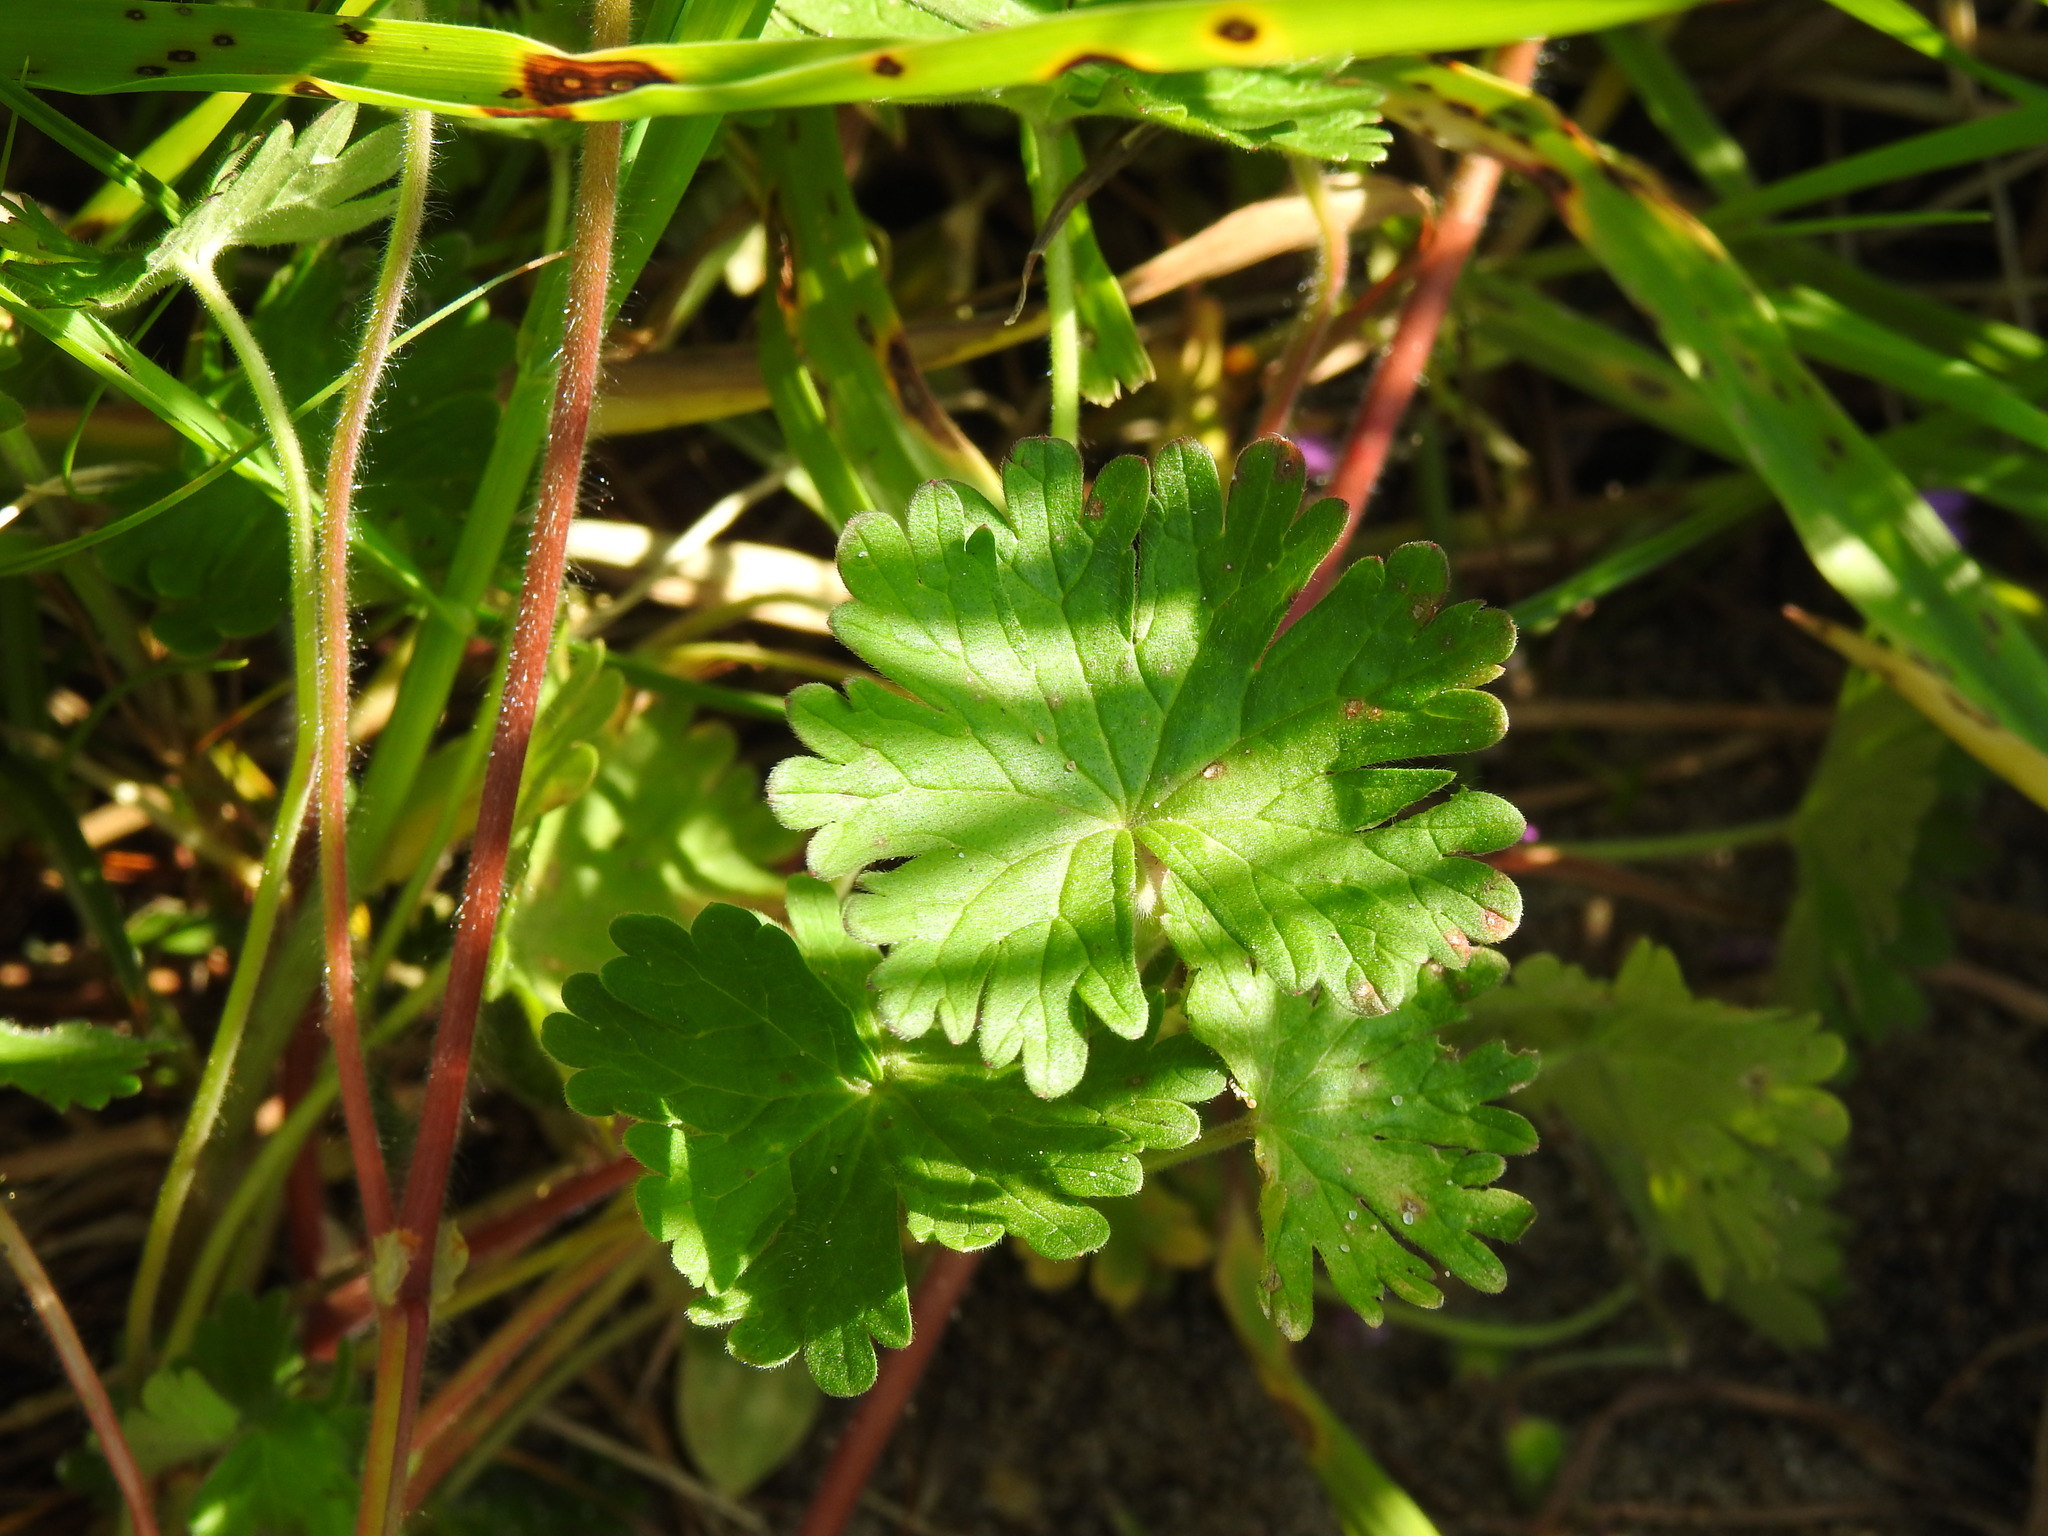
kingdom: Plantae
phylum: Tracheophyta
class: Magnoliopsida
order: Geraniales
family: Geraniaceae
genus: Geranium
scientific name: Geranium molle
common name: Dove's-foot crane's-bill
